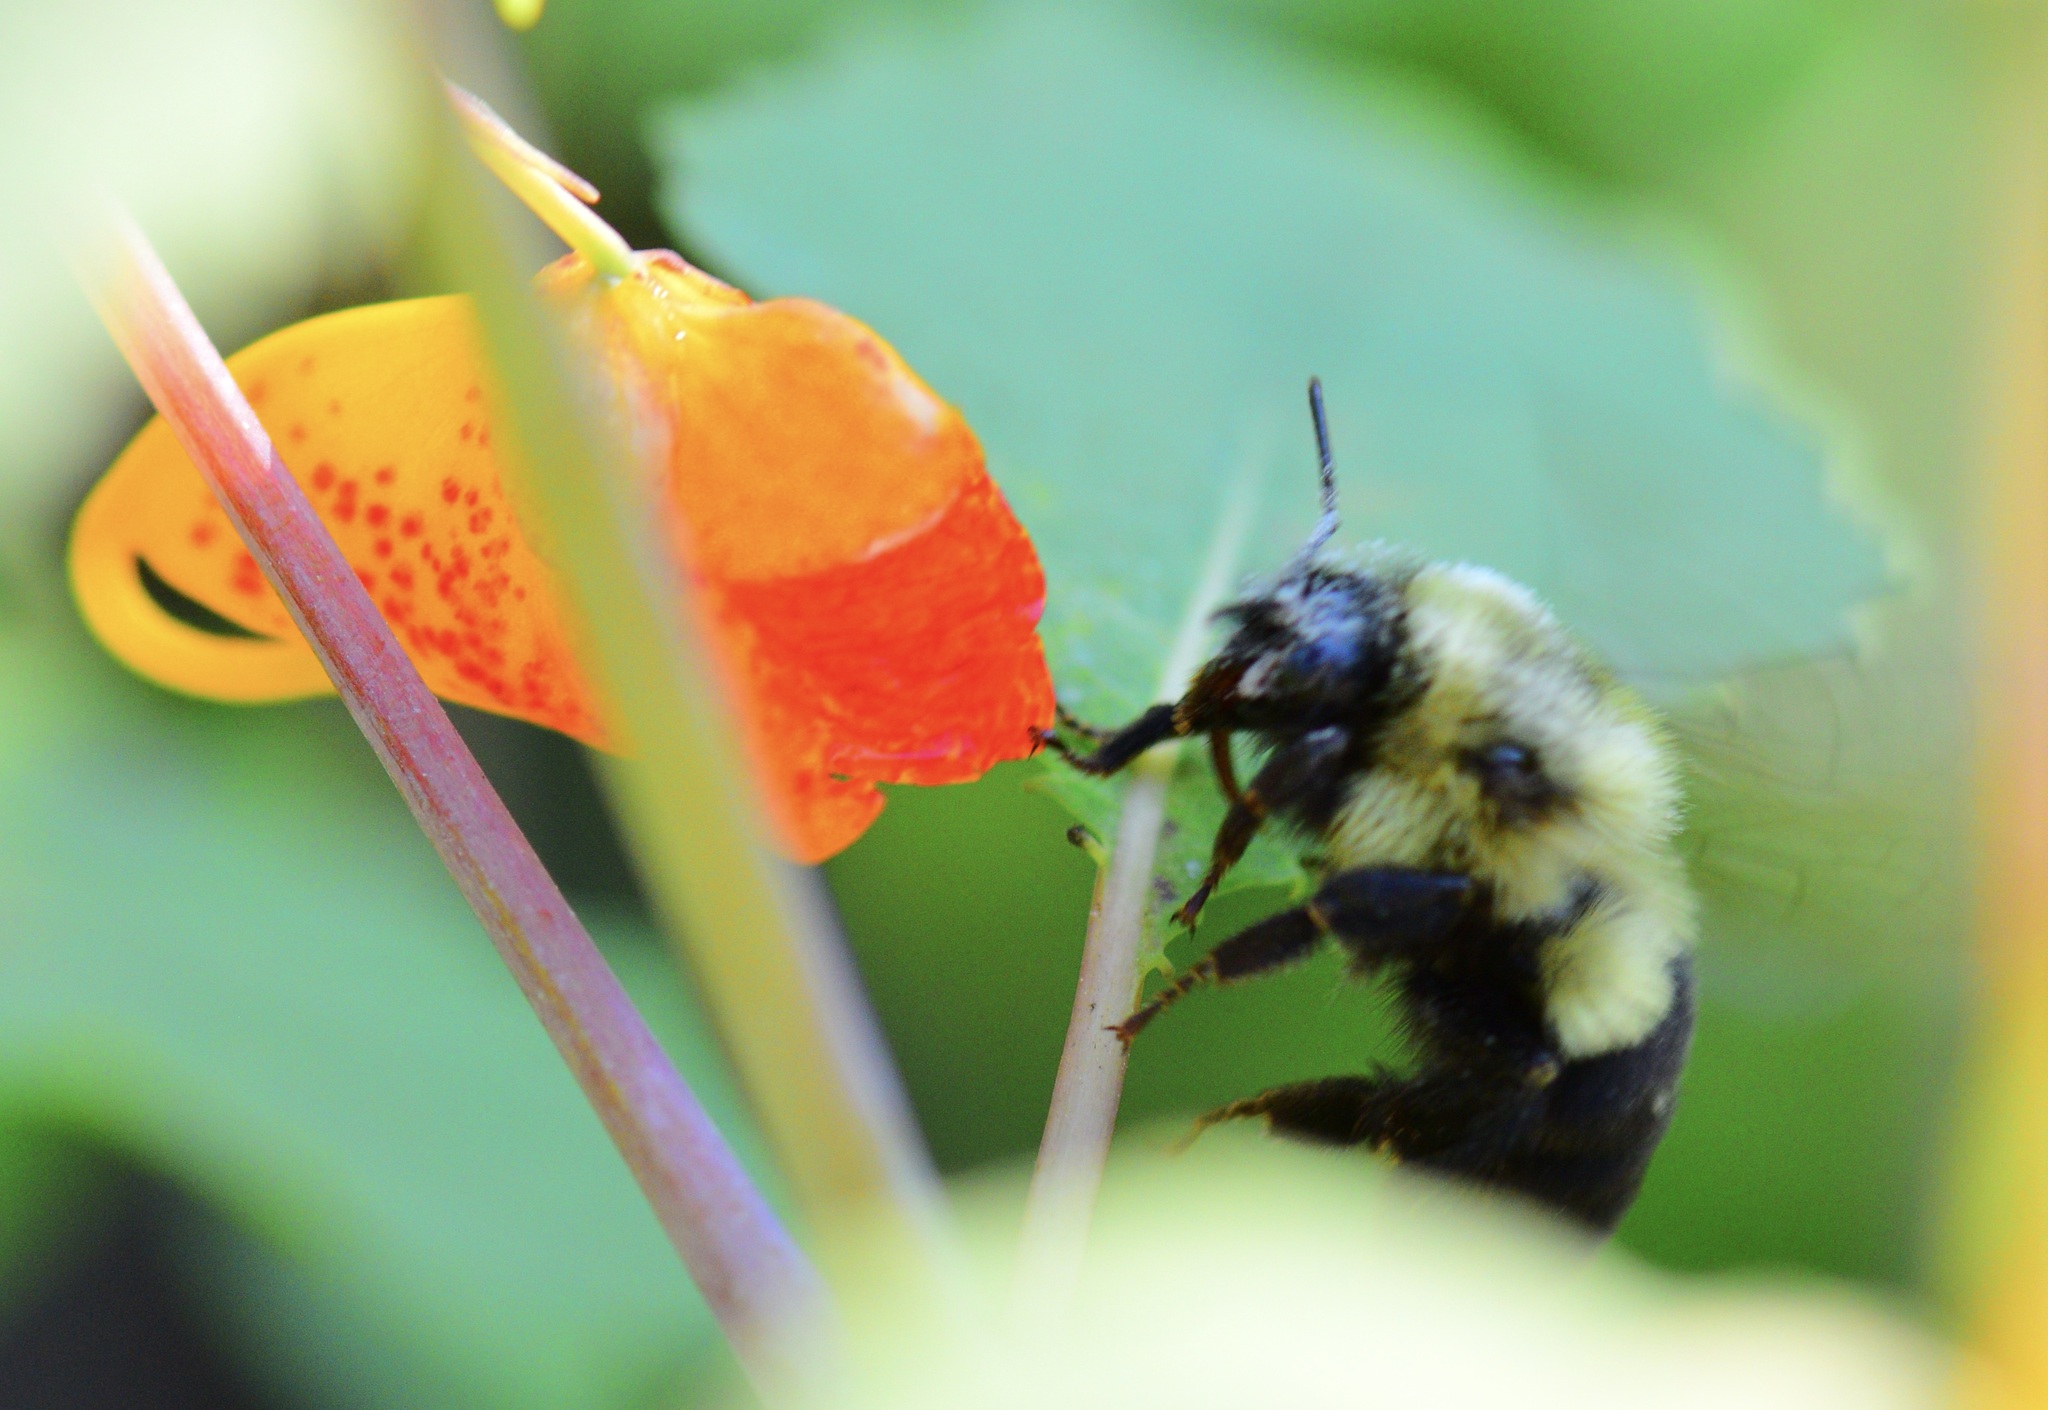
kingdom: Animalia
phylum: Arthropoda
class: Insecta
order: Hymenoptera
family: Apidae
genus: Bombus
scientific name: Bombus impatiens
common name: Common eastern bumble bee
